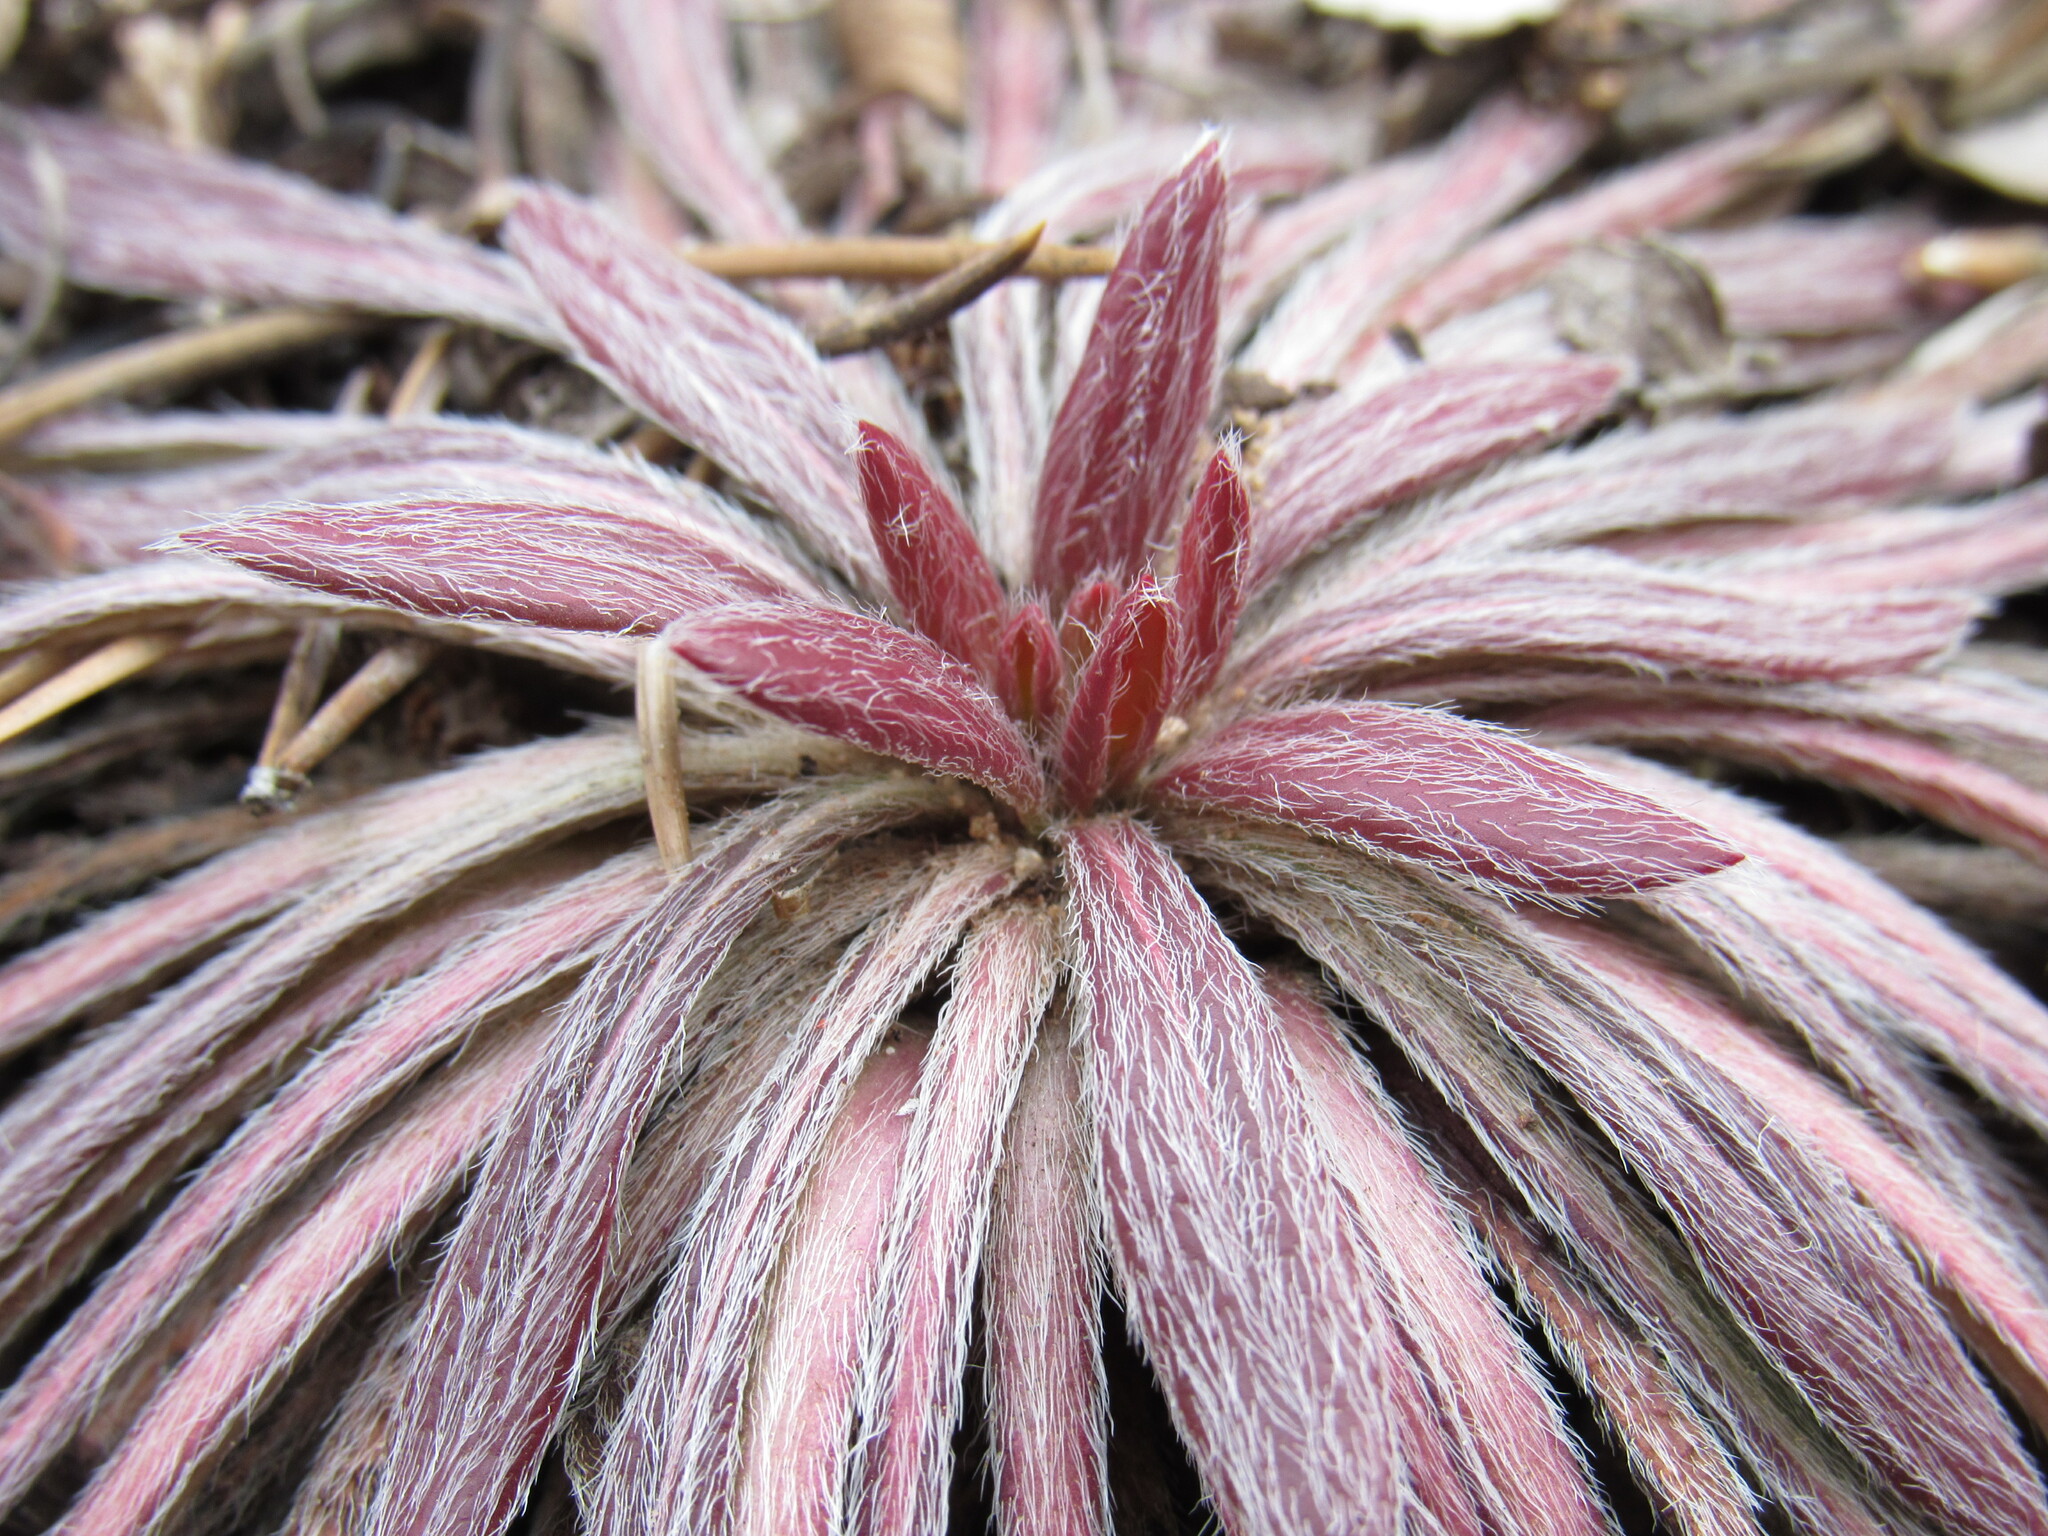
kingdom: Plantae
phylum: Tracheophyta
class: Magnoliopsida
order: Caryophyllales
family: Polygonaceae
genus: Eriogonum
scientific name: Eriogonum alatum
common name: Winged eriogonum
